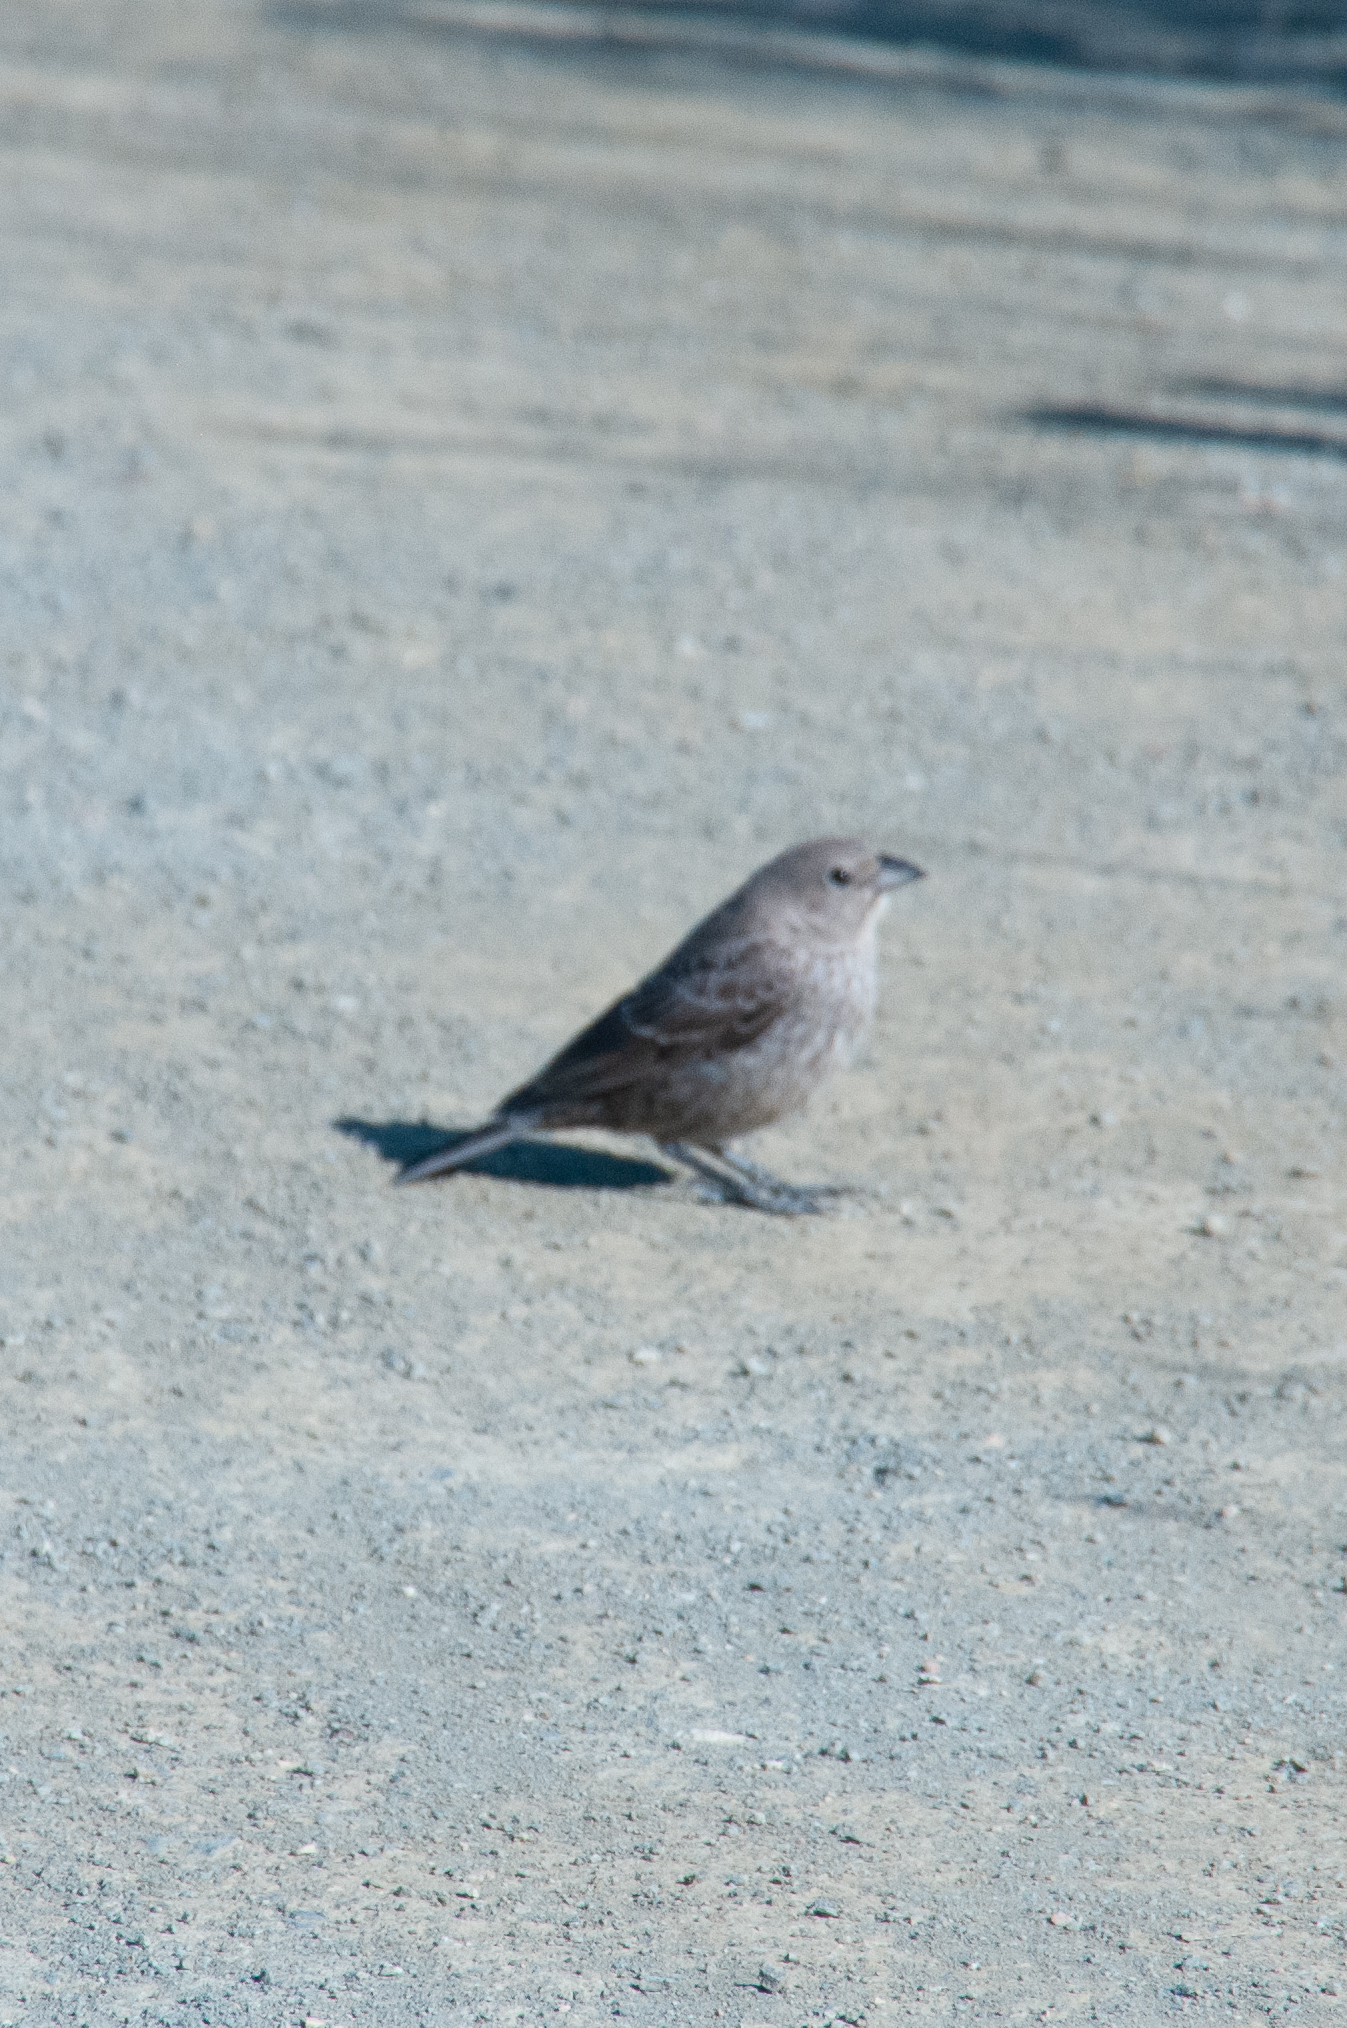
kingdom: Animalia
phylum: Chordata
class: Aves
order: Passeriformes
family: Icteridae
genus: Molothrus
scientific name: Molothrus ater
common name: Brown-headed cowbird
